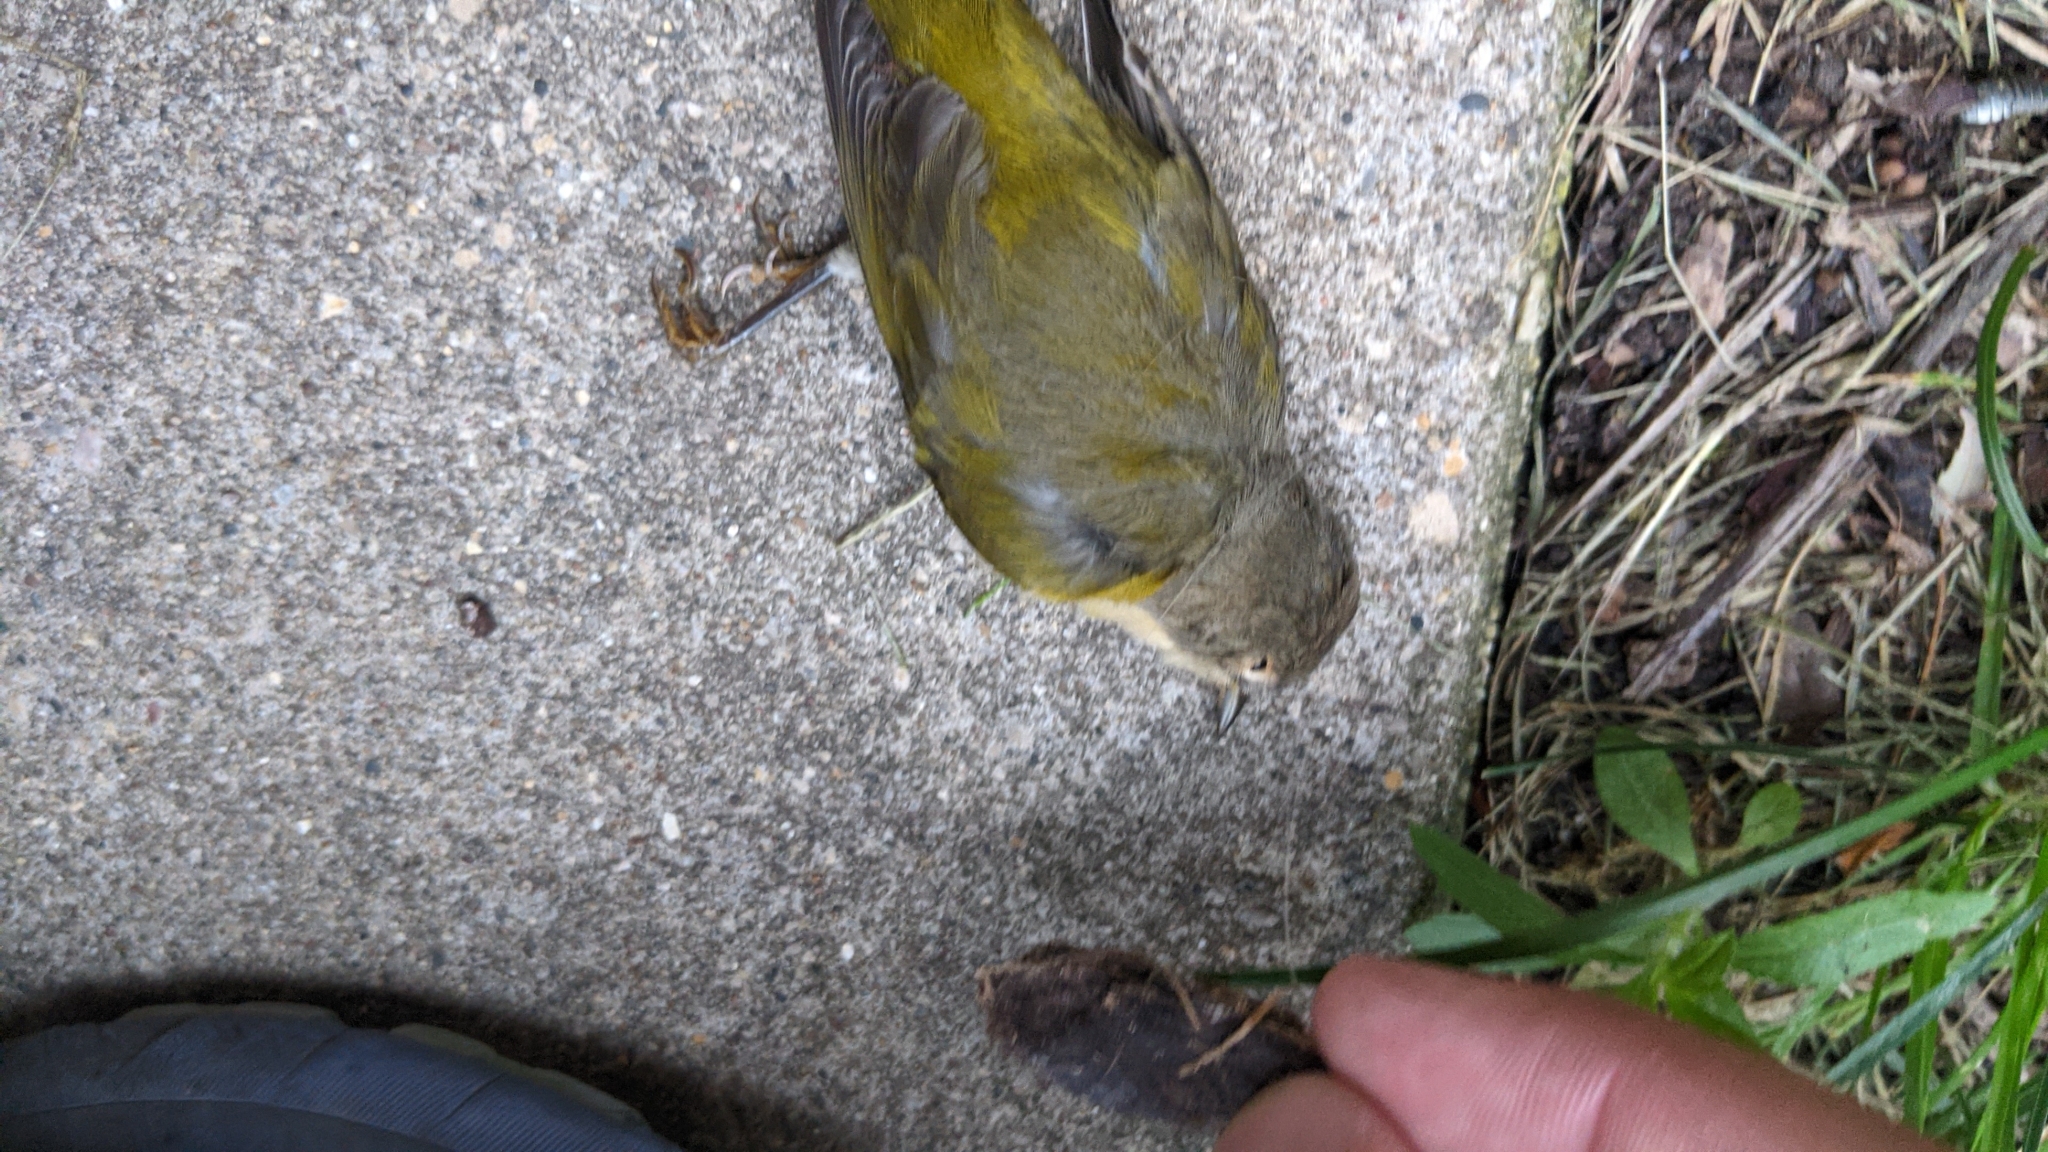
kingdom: Animalia
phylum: Chordata
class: Aves
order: Passeriformes
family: Parulidae
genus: Leiothlypis
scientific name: Leiothlypis ruficapilla
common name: Nashville warbler
